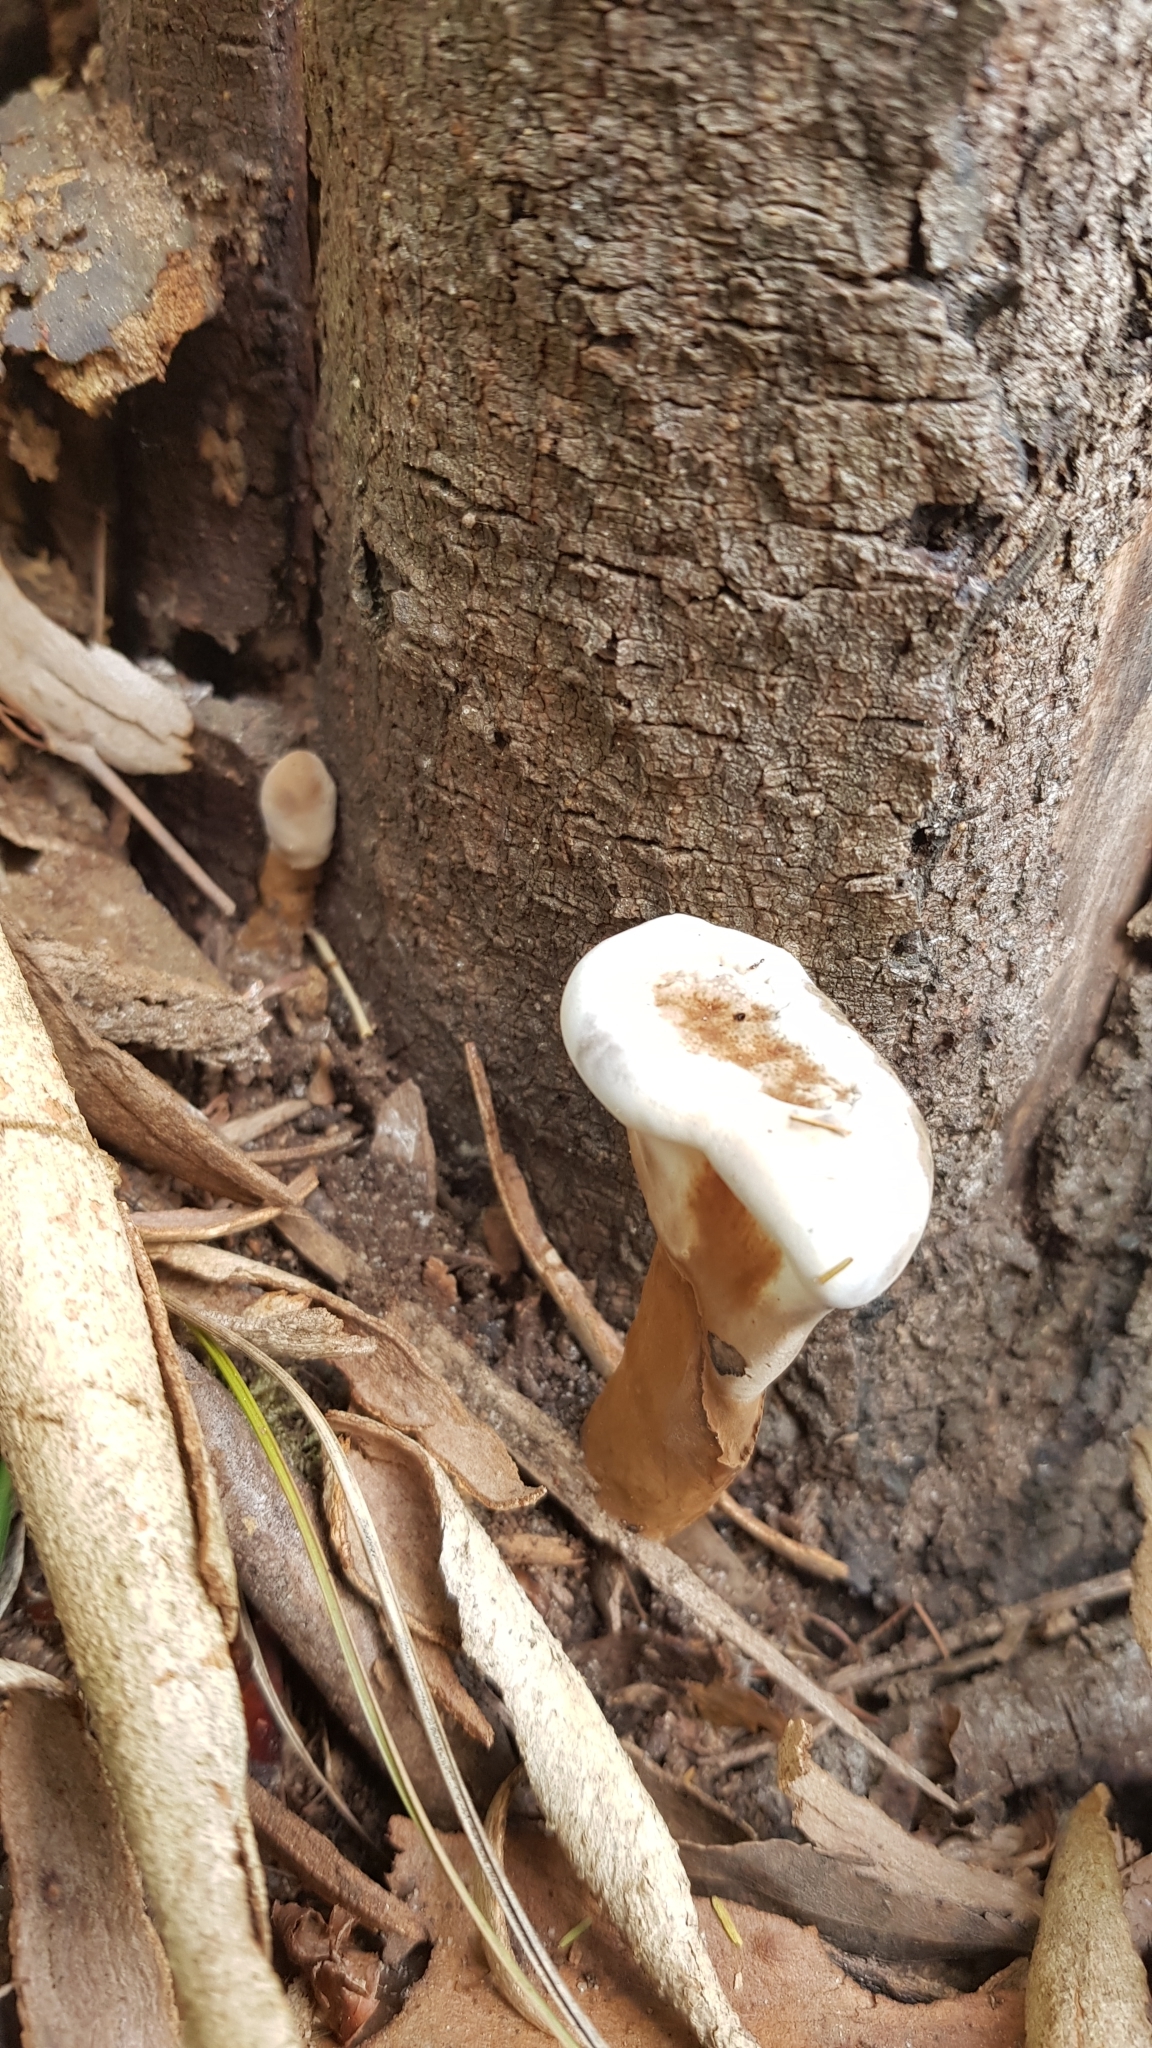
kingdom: Fungi
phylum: Basidiomycota
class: Agaricomycetes
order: Polyporales
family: Ganodermataceae
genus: Sanguinoderma
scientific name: Sanguinoderma rude
